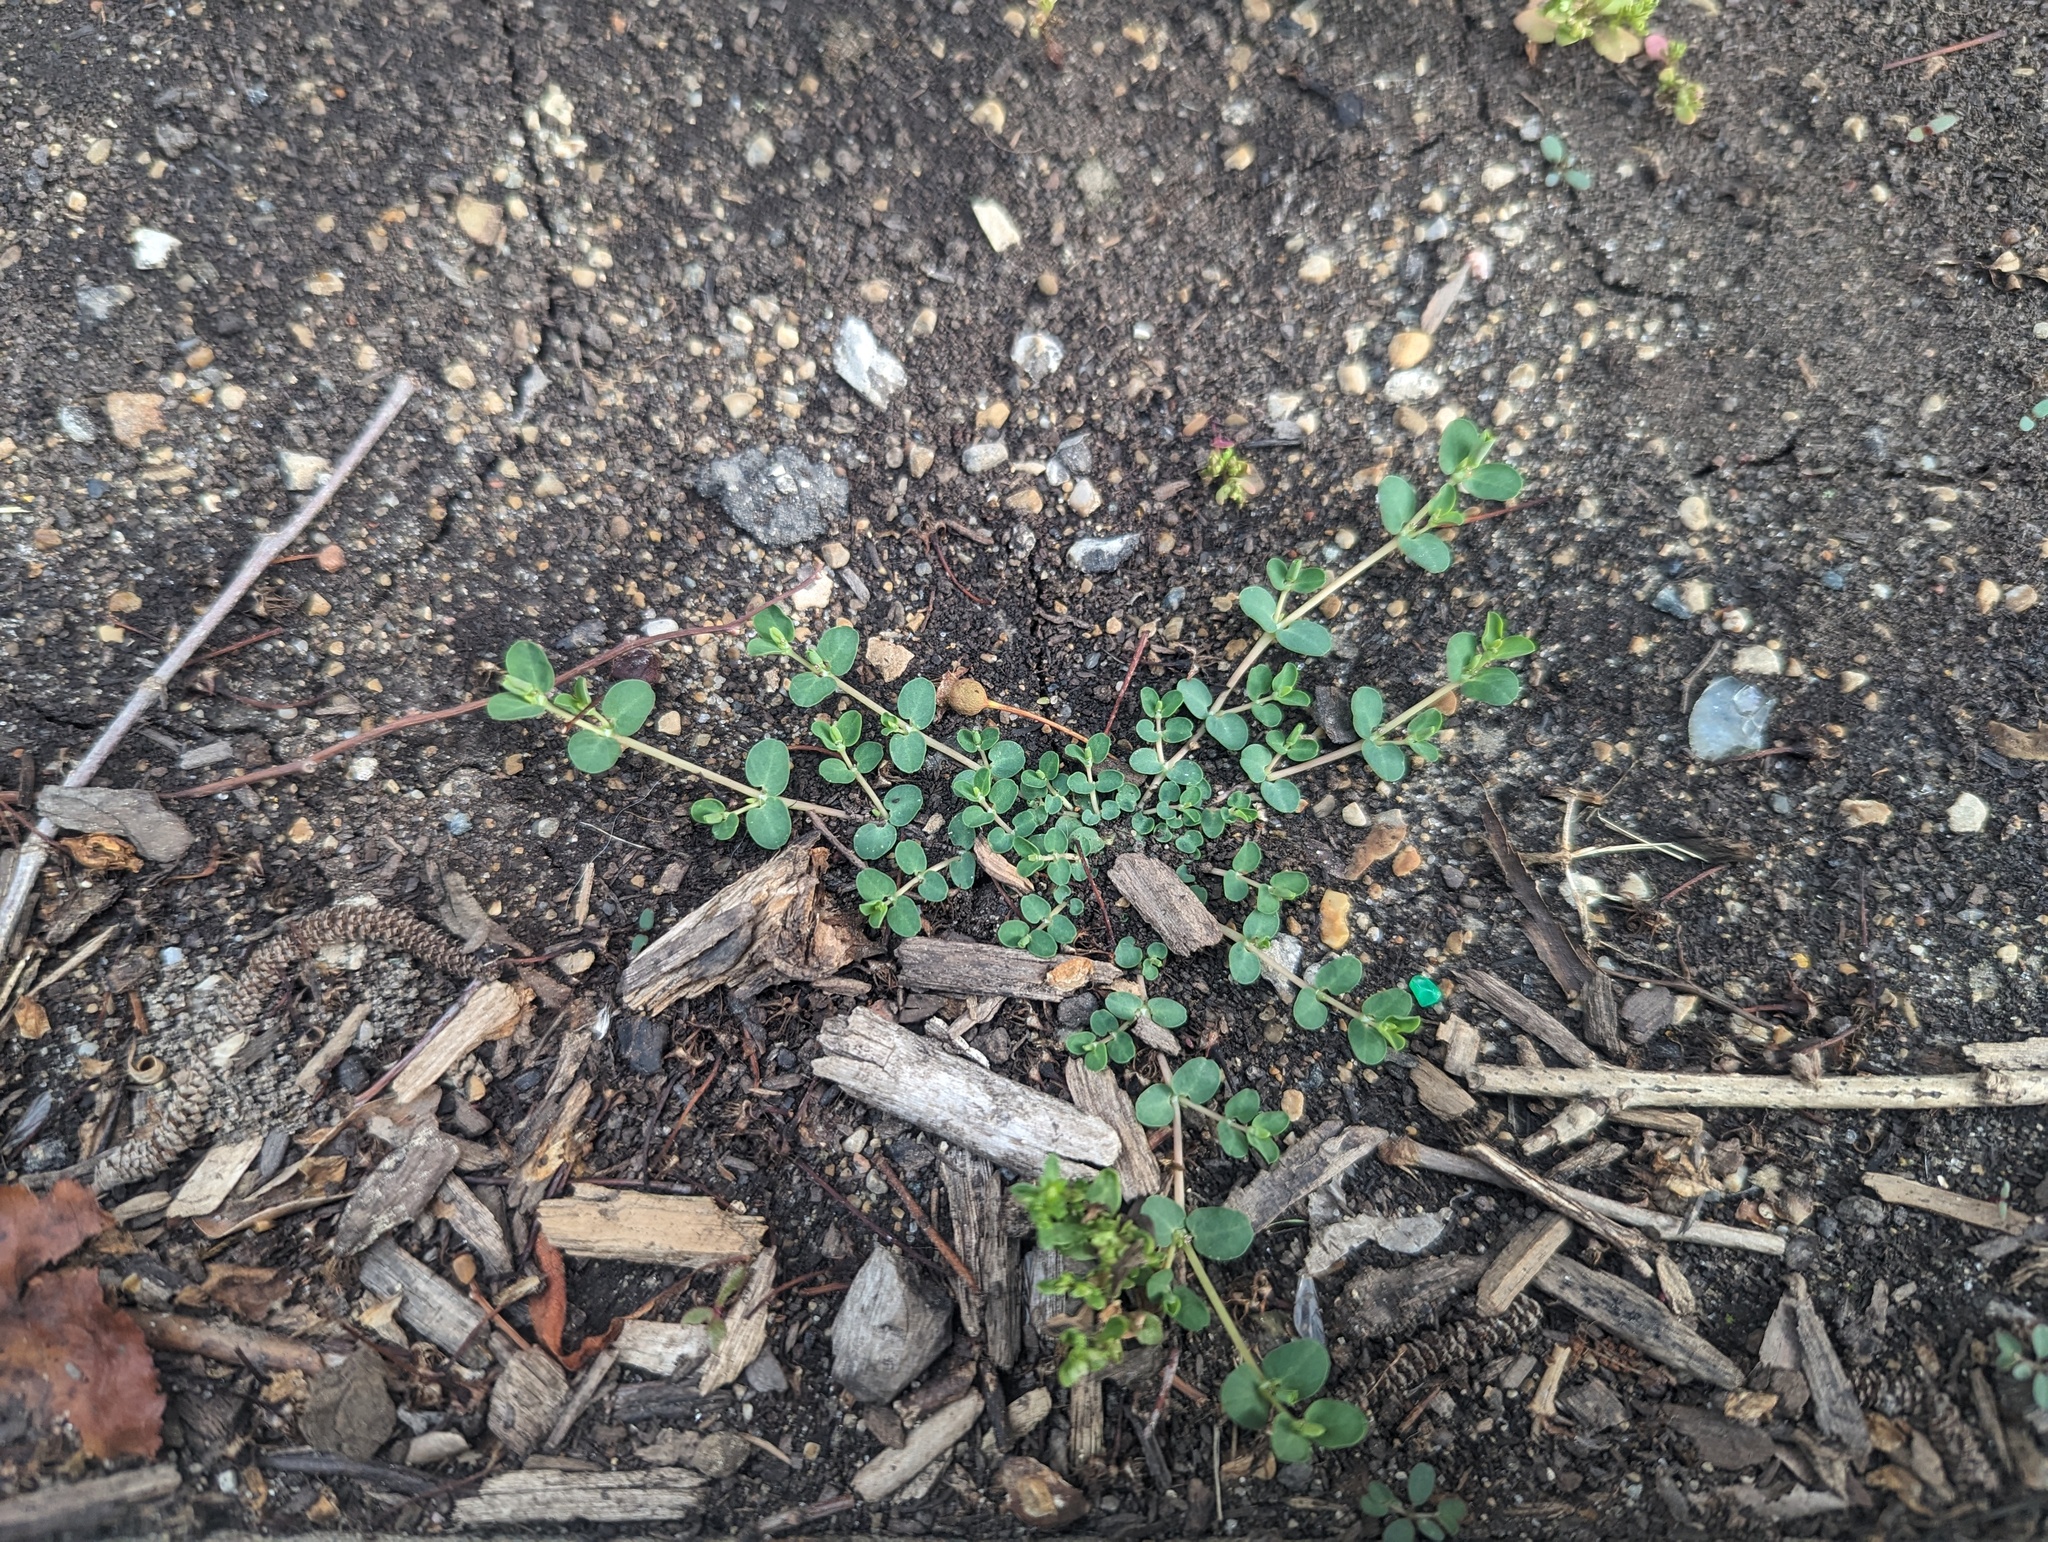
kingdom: Plantae
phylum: Tracheophyta
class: Magnoliopsida
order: Malpighiales
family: Euphorbiaceae
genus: Euphorbia
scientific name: Euphorbia serpens
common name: Matted sandmat
